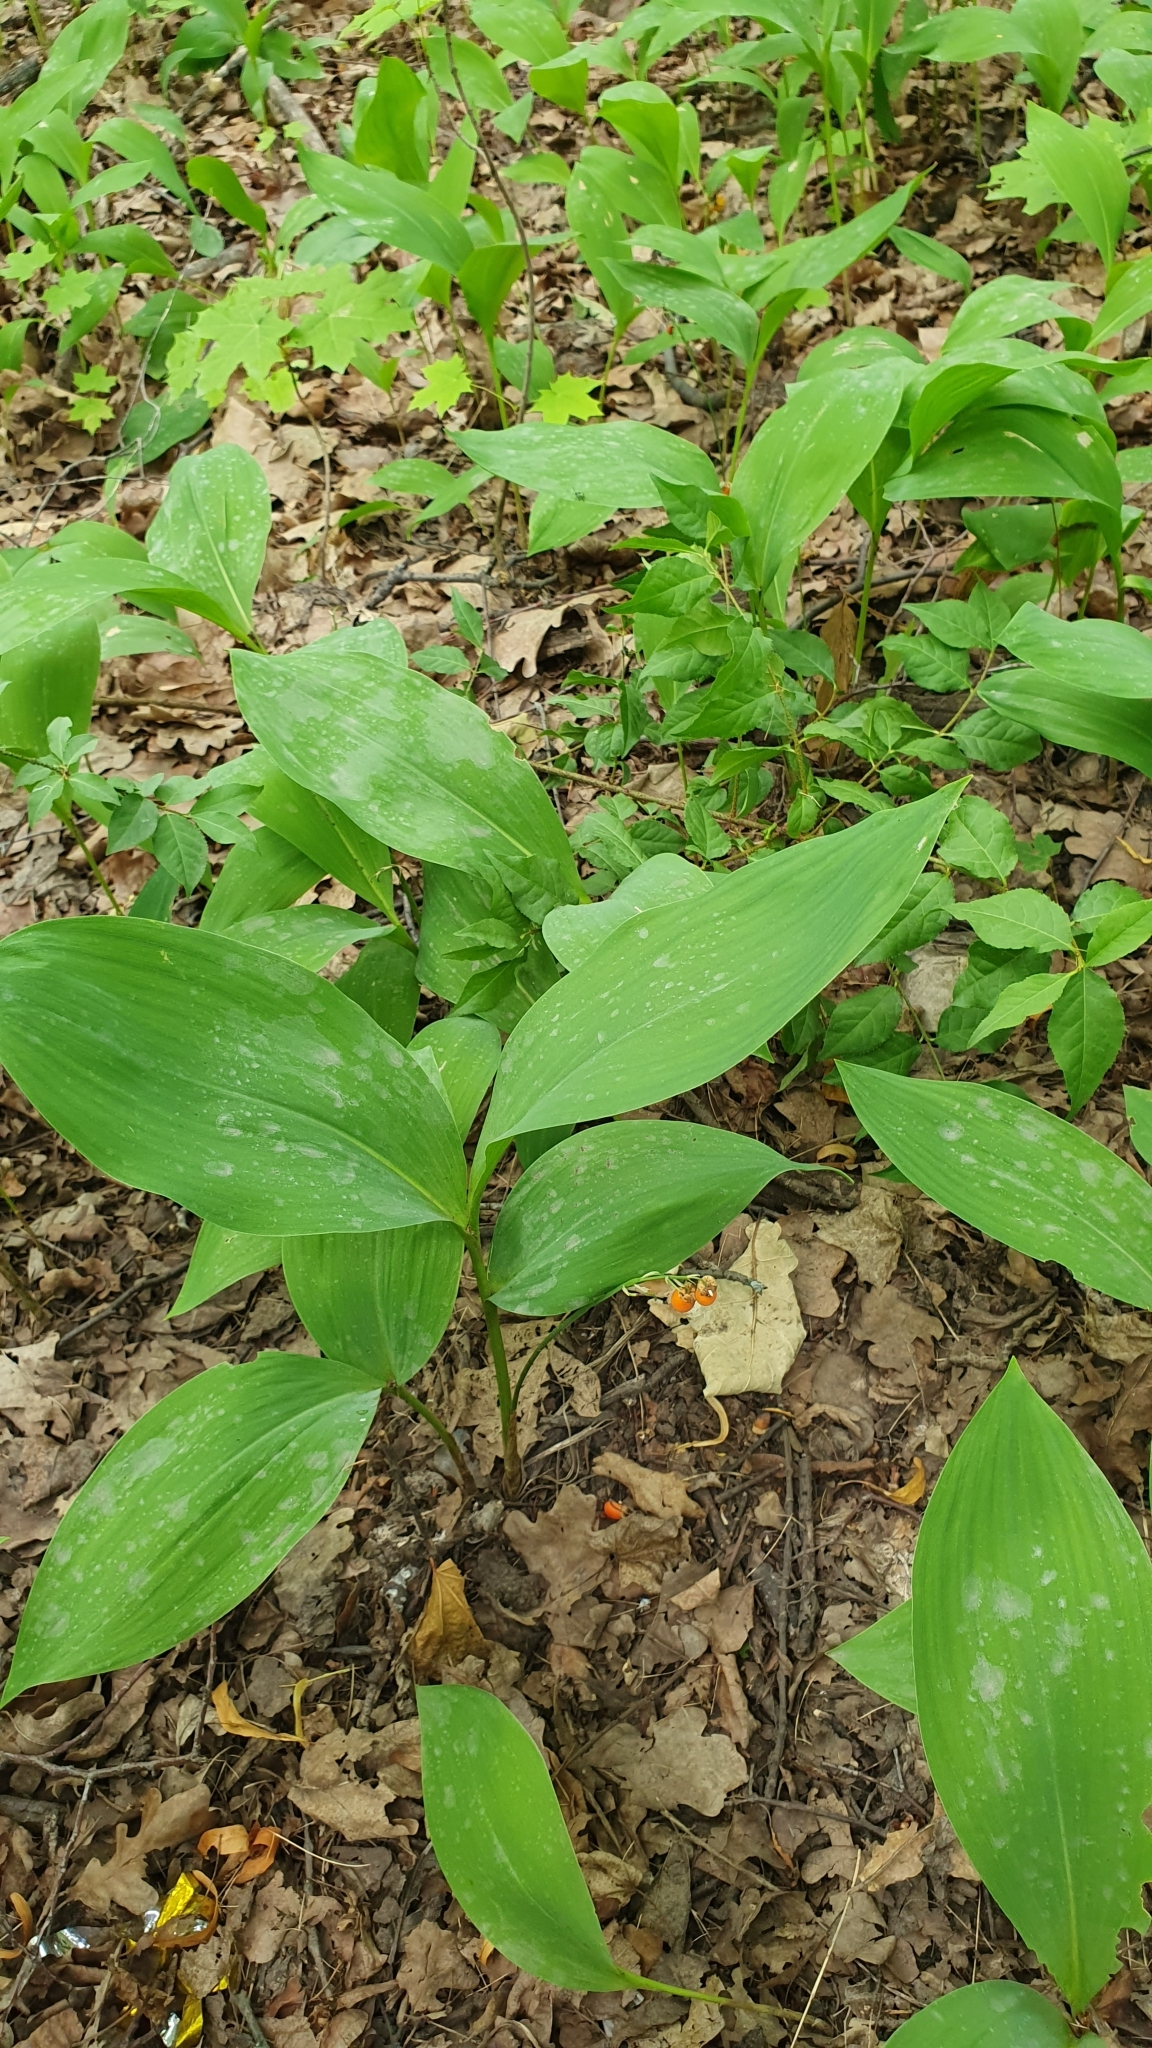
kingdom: Plantae
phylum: Tracheophyta
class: Liliopsida
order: Asparagales
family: Asparagaceae
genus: Convallaria
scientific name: Convallaria majalis
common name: Lily-of-the-valley
